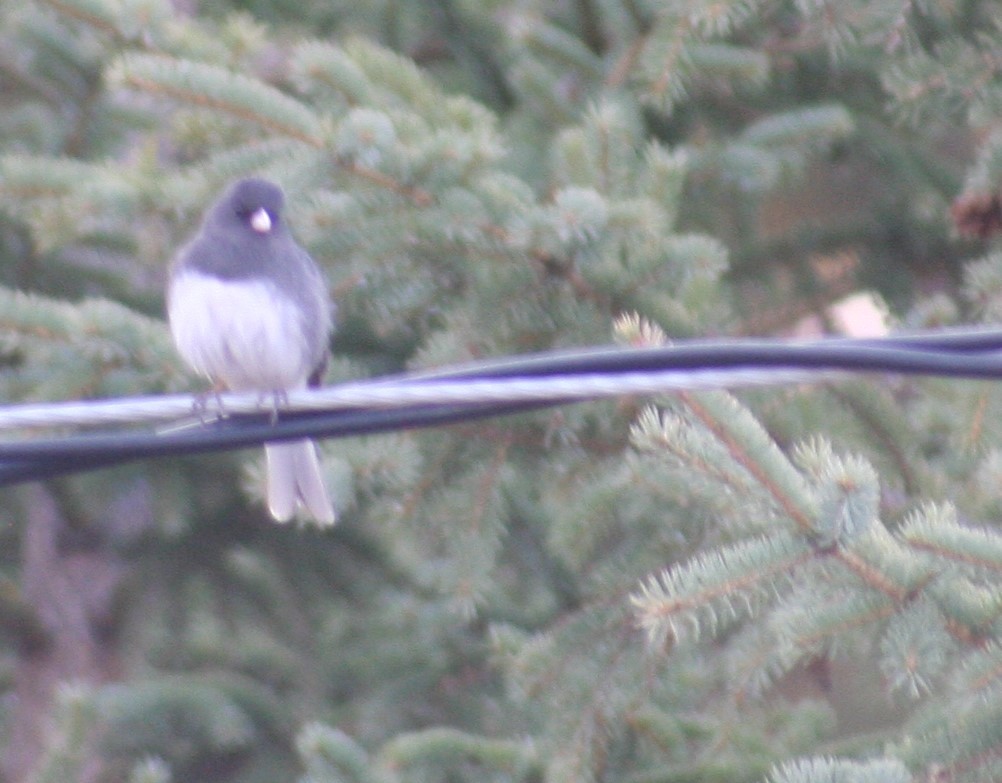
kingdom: Animalia
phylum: Chordata
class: Aves
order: Passeriformes
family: Passerellidae
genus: Junco
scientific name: Junco hyemalis
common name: Dark-eyed junco
